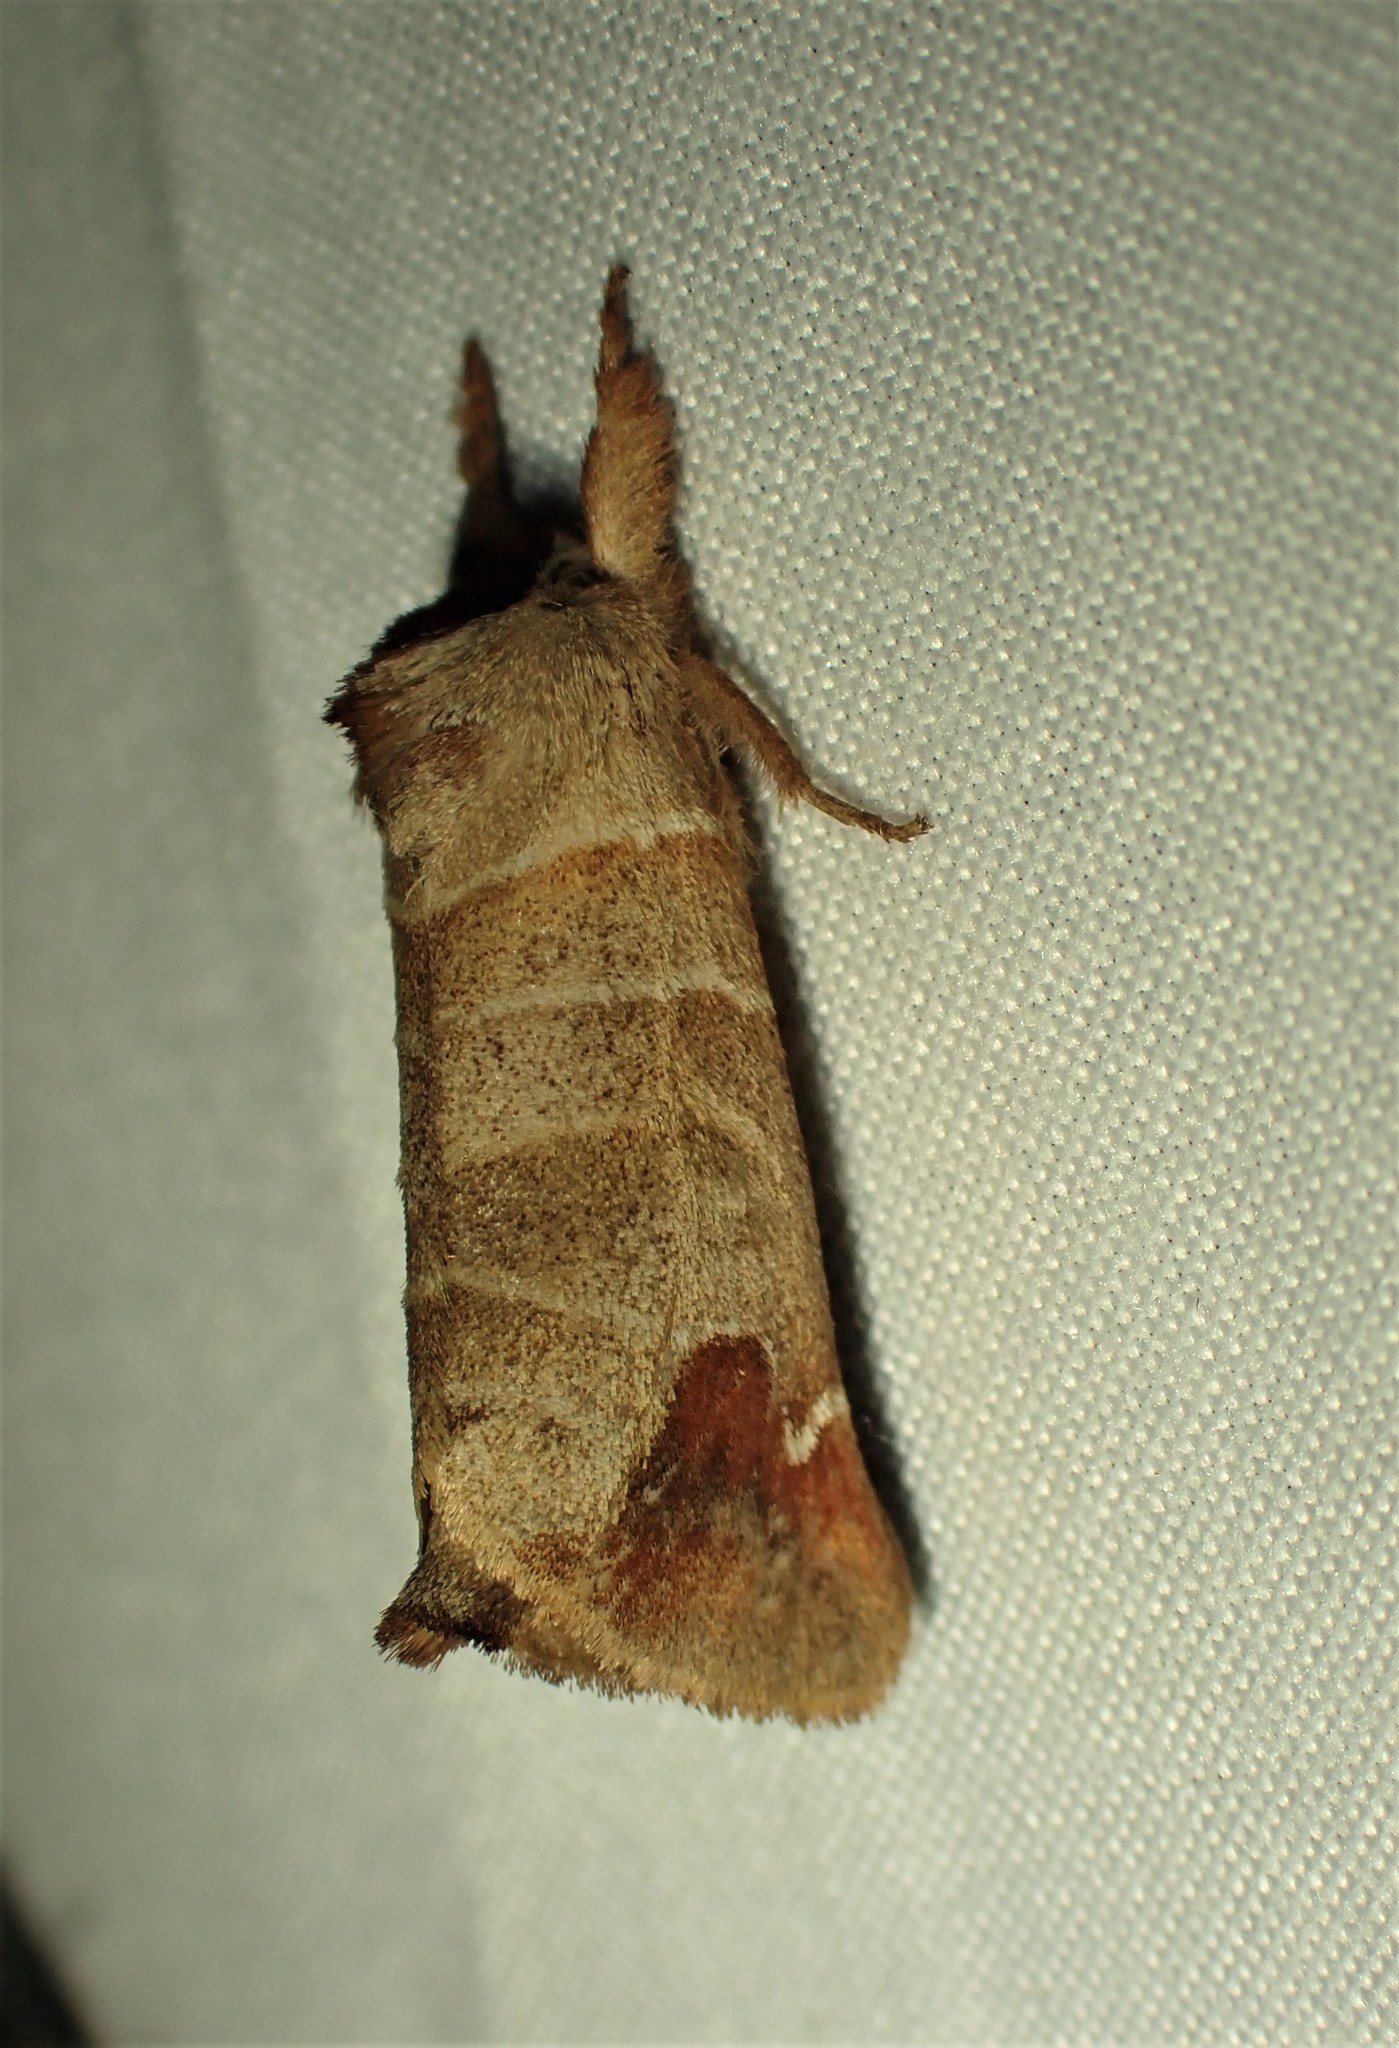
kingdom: Animalia
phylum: Arthropoda
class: Insecta
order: Lepidoptera
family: Notodontidae
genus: Clostera
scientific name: Clostera albosigma
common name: Sigmoid prominent
